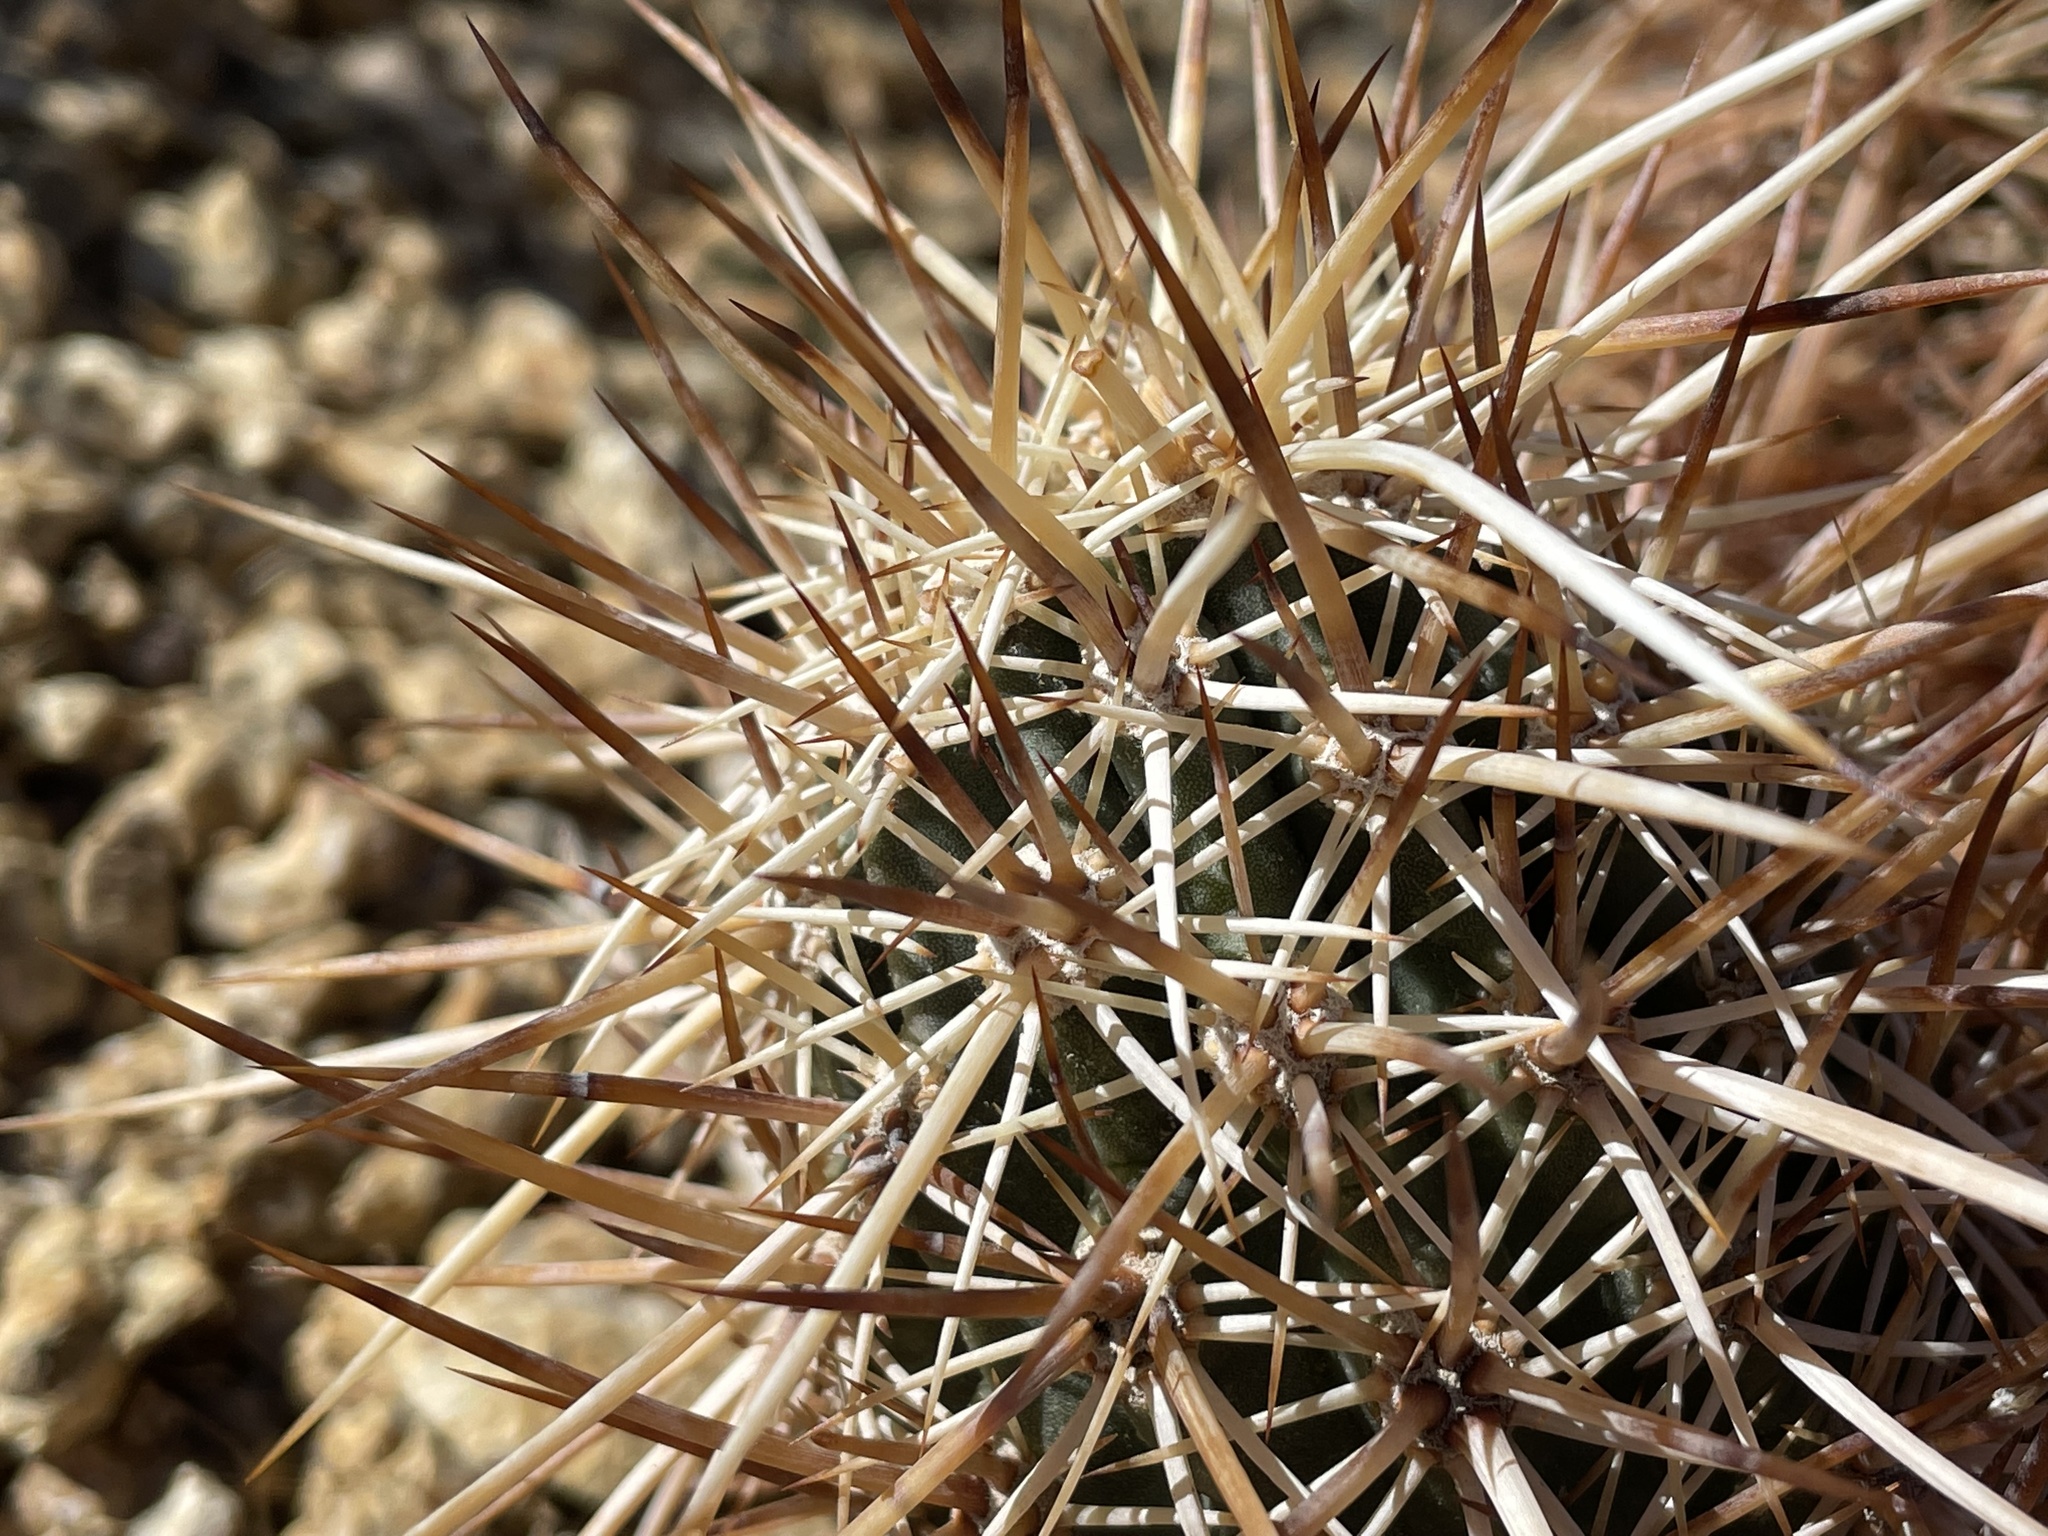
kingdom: Plantae
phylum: Tracheophyta
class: Magnoliopsida
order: Caryophyllales
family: Cactaceae
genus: Echinocereus
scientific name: Echinocereus engelmannii
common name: Engelmann's hedgehog cactus
